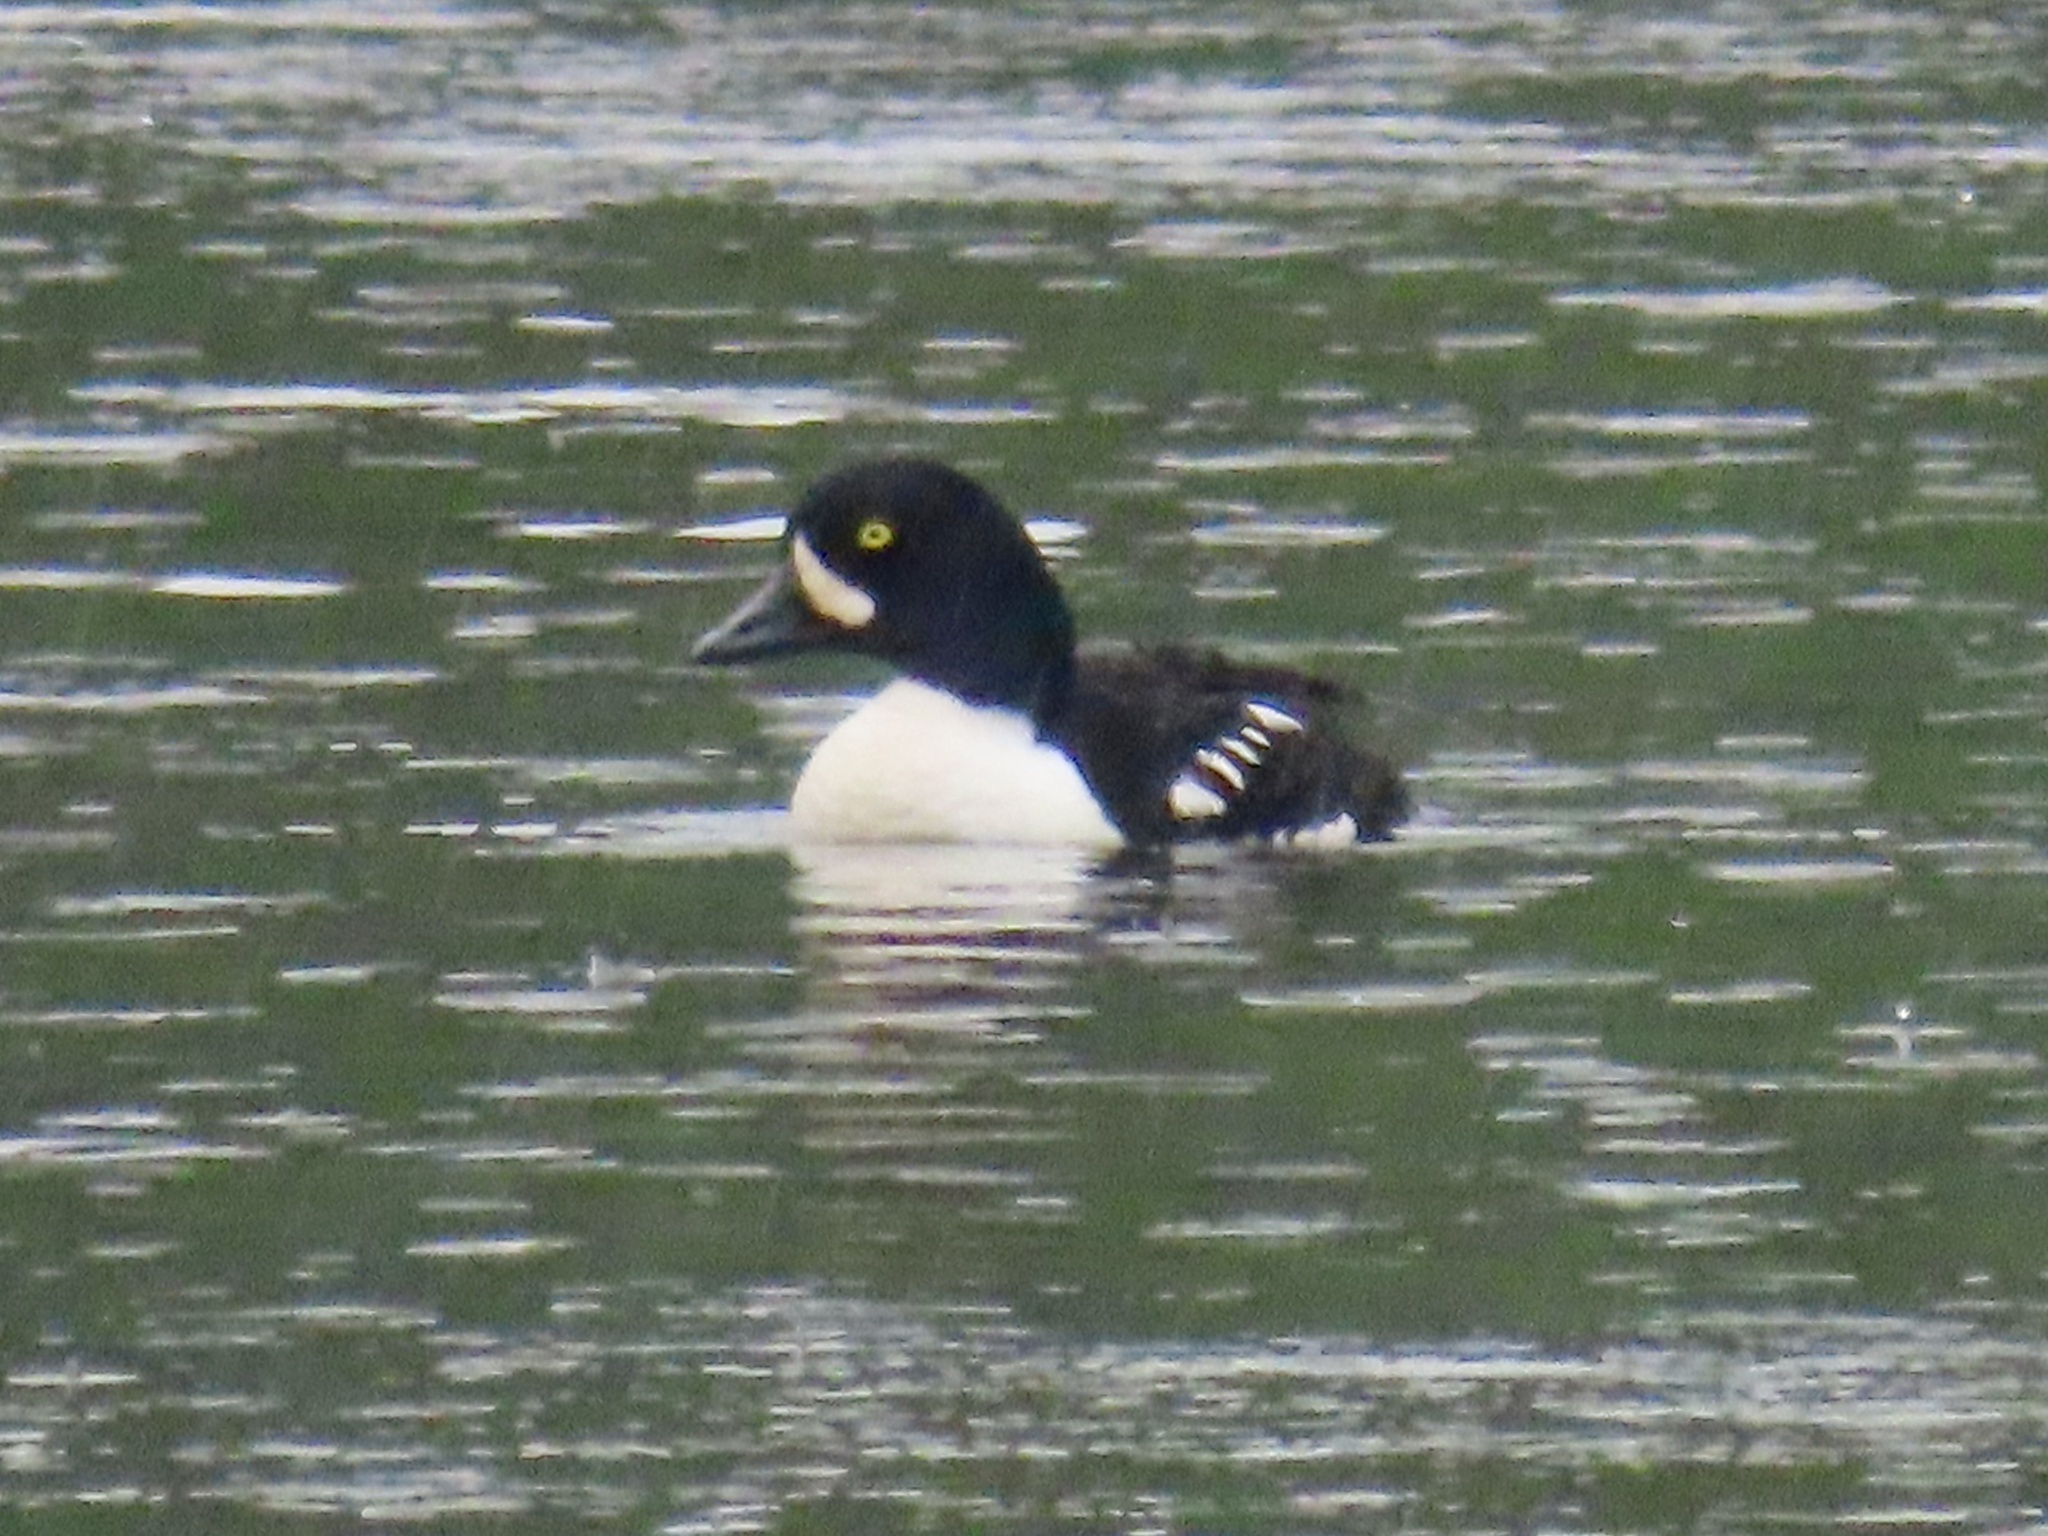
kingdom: Animalia
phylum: Chordata
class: Aves
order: Anseriformes
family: Anatidae
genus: Bucephala
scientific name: Bucephala islandica
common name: Barrow's goldeneye
